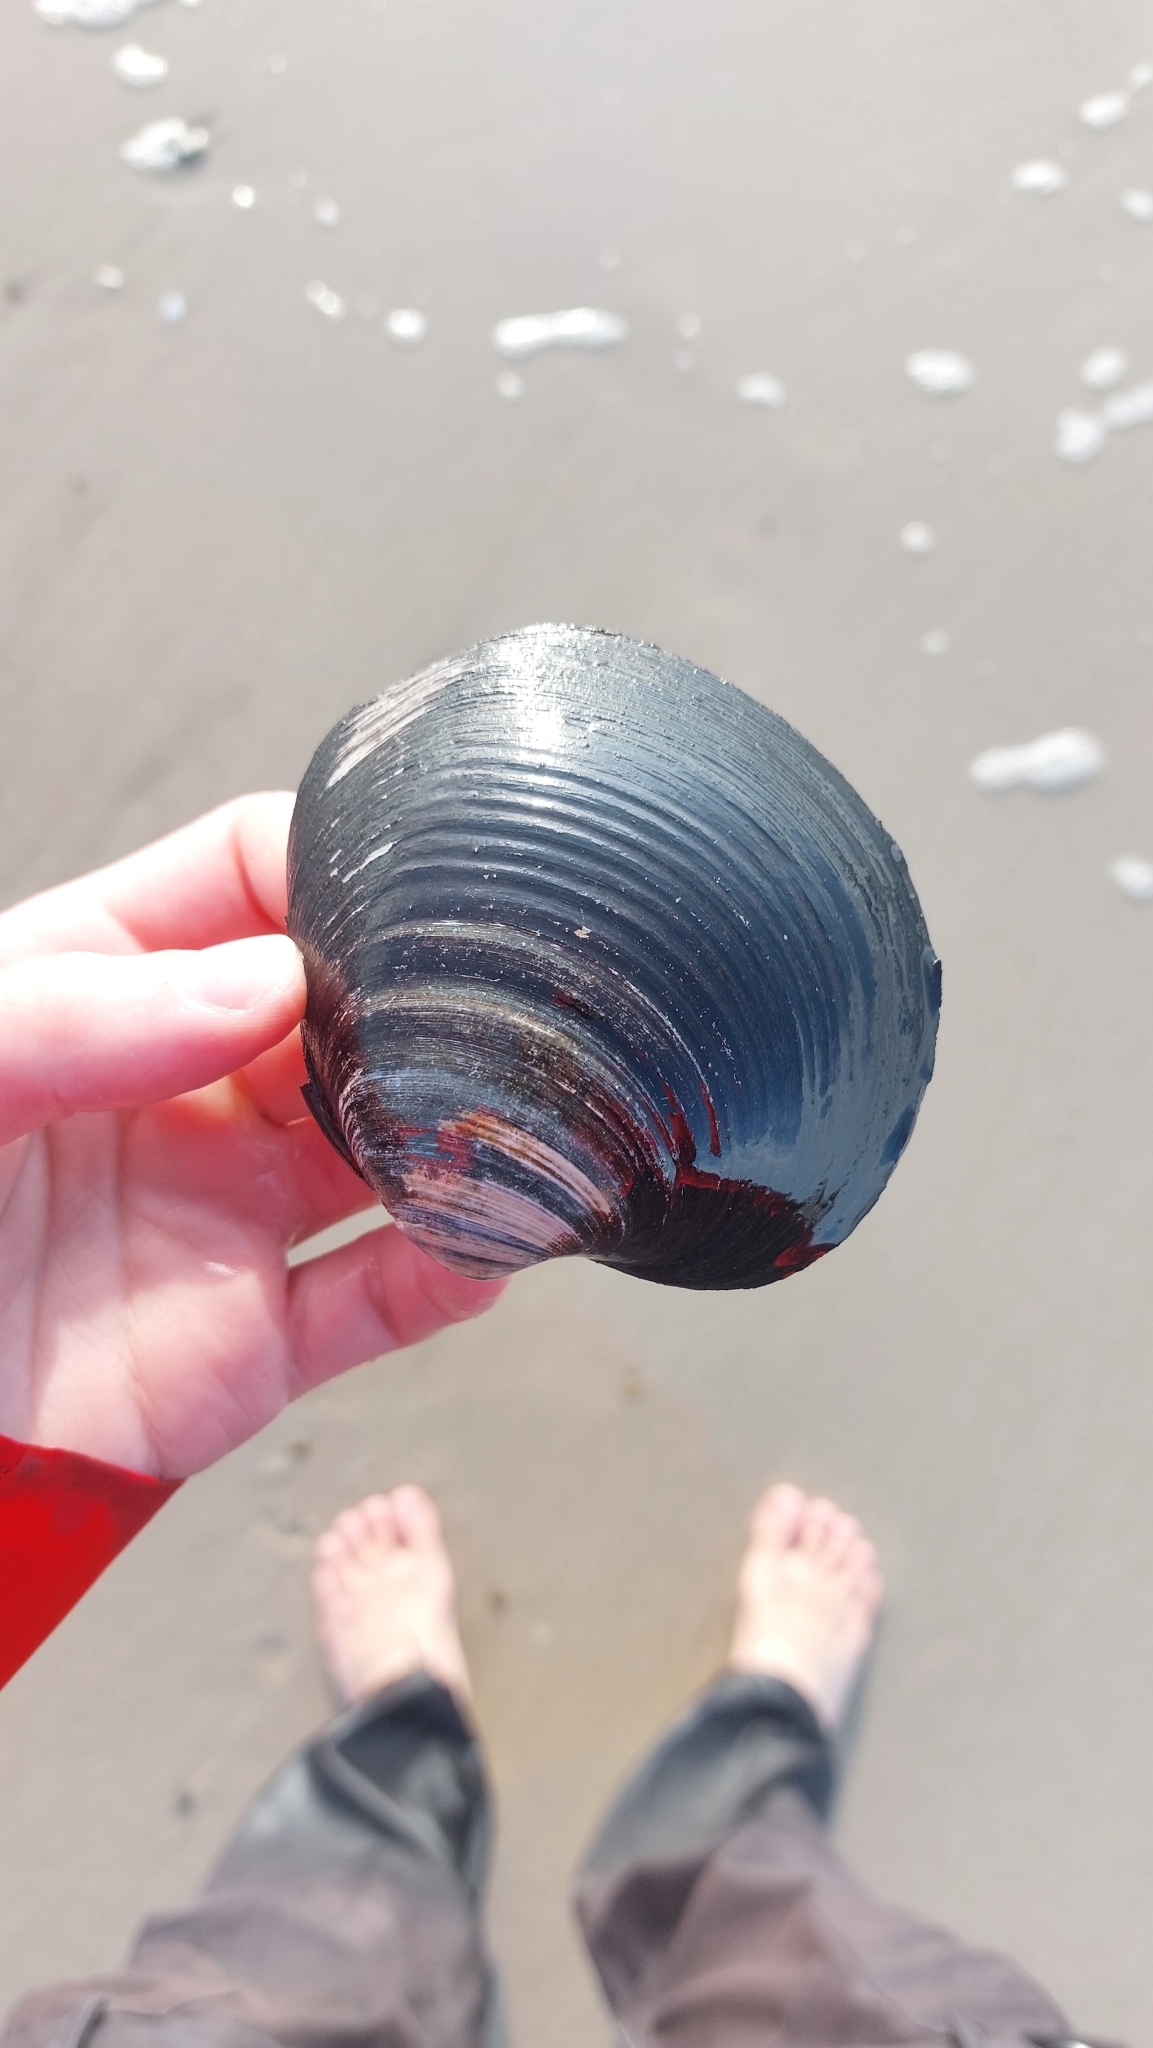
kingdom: Animalia
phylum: Mollusca
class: Bivalvia
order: Venerida
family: Arcticidae
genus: Arctica
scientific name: Arctica islandica
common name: Icelandic cyprine
